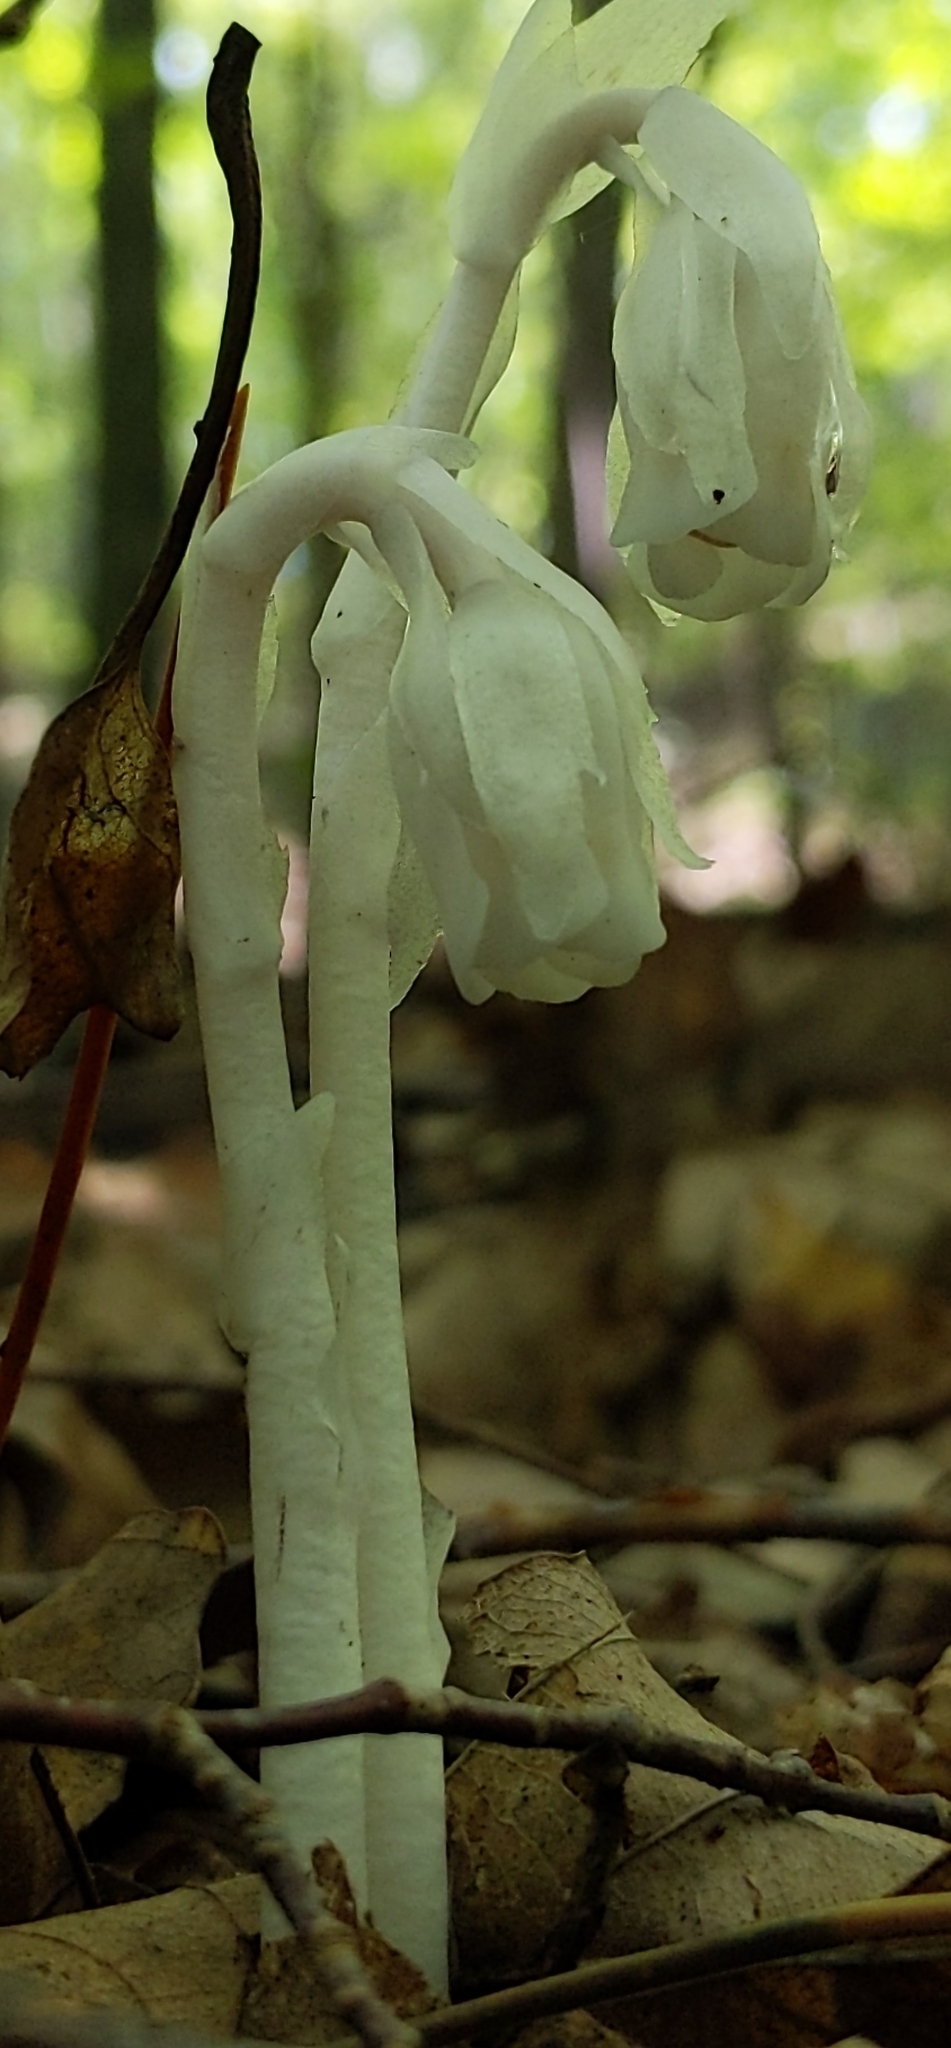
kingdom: Plantae
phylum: Tracheophyta
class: Magnoliopsida
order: Ericales
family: Ericaceae
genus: Monotropa
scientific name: Monotropa uniflora
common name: Convulsion root
